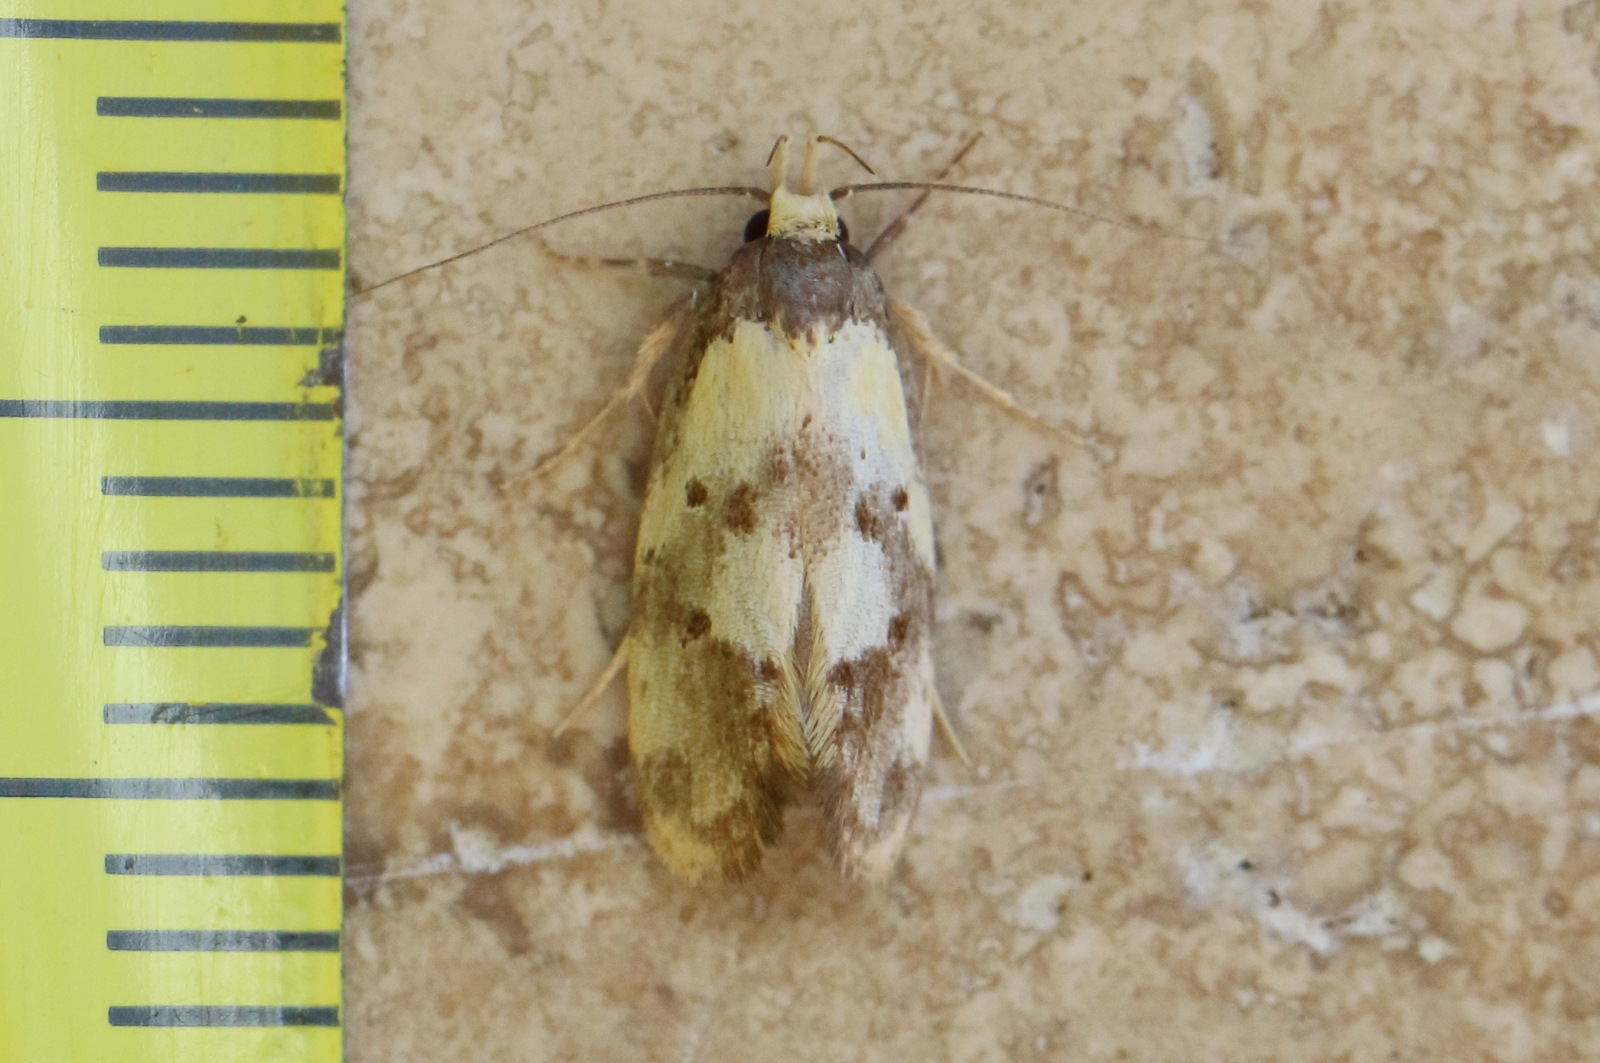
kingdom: Animalia
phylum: Arthropoda
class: Insecta
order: Lepidoptera
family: Oecophoridae
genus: Eulechria
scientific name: Eulechria marmorata
